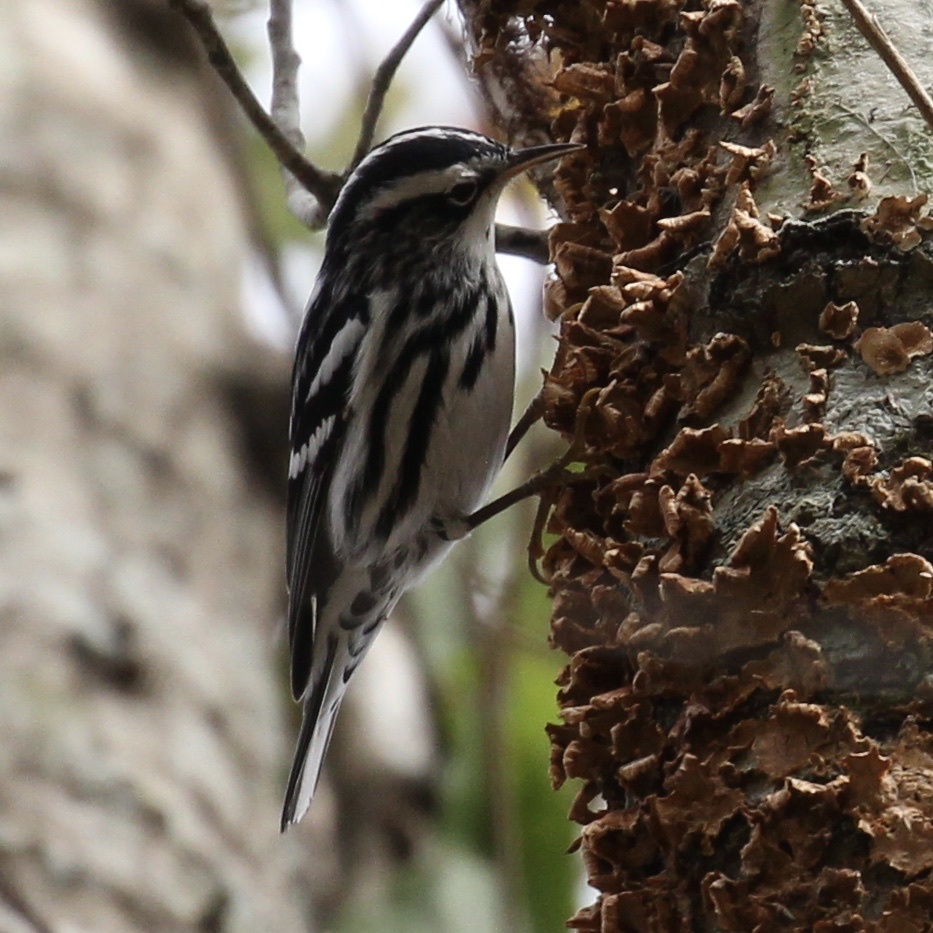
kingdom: Animalia
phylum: Chordata
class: Aves
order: Passeriformes
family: Parulidae
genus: Mniotilta
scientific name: Mniotilta varia
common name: Black-and-white warbler
